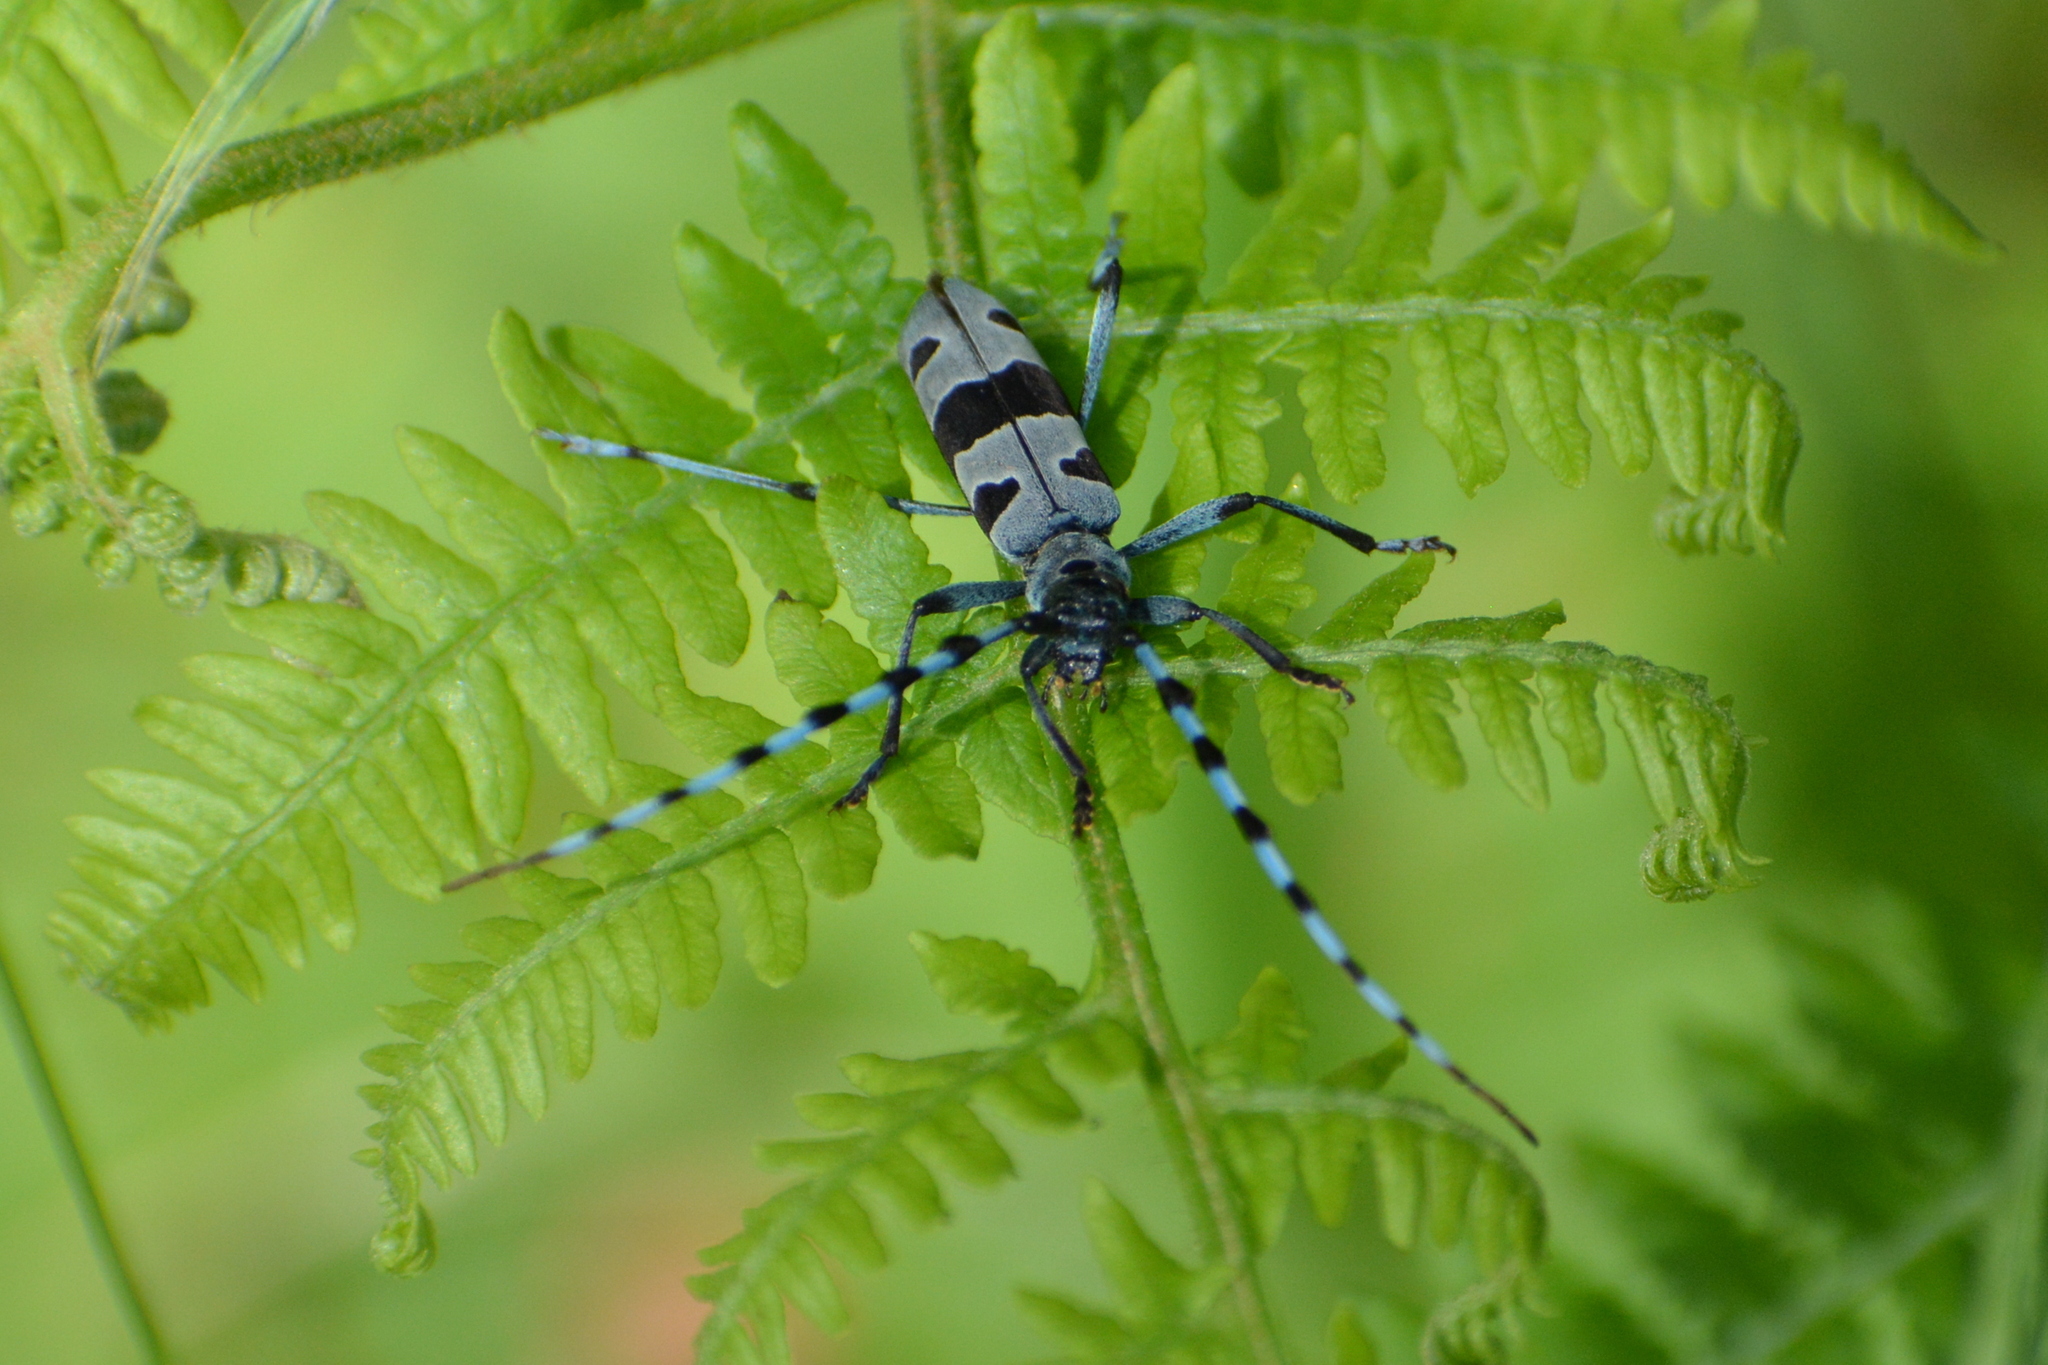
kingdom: Animalia
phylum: Arthropoda
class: Insecta
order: Coleoptera
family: Cerambycidae
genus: Rosalia
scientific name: Rosalia alpina
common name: Rosalia longicorn
